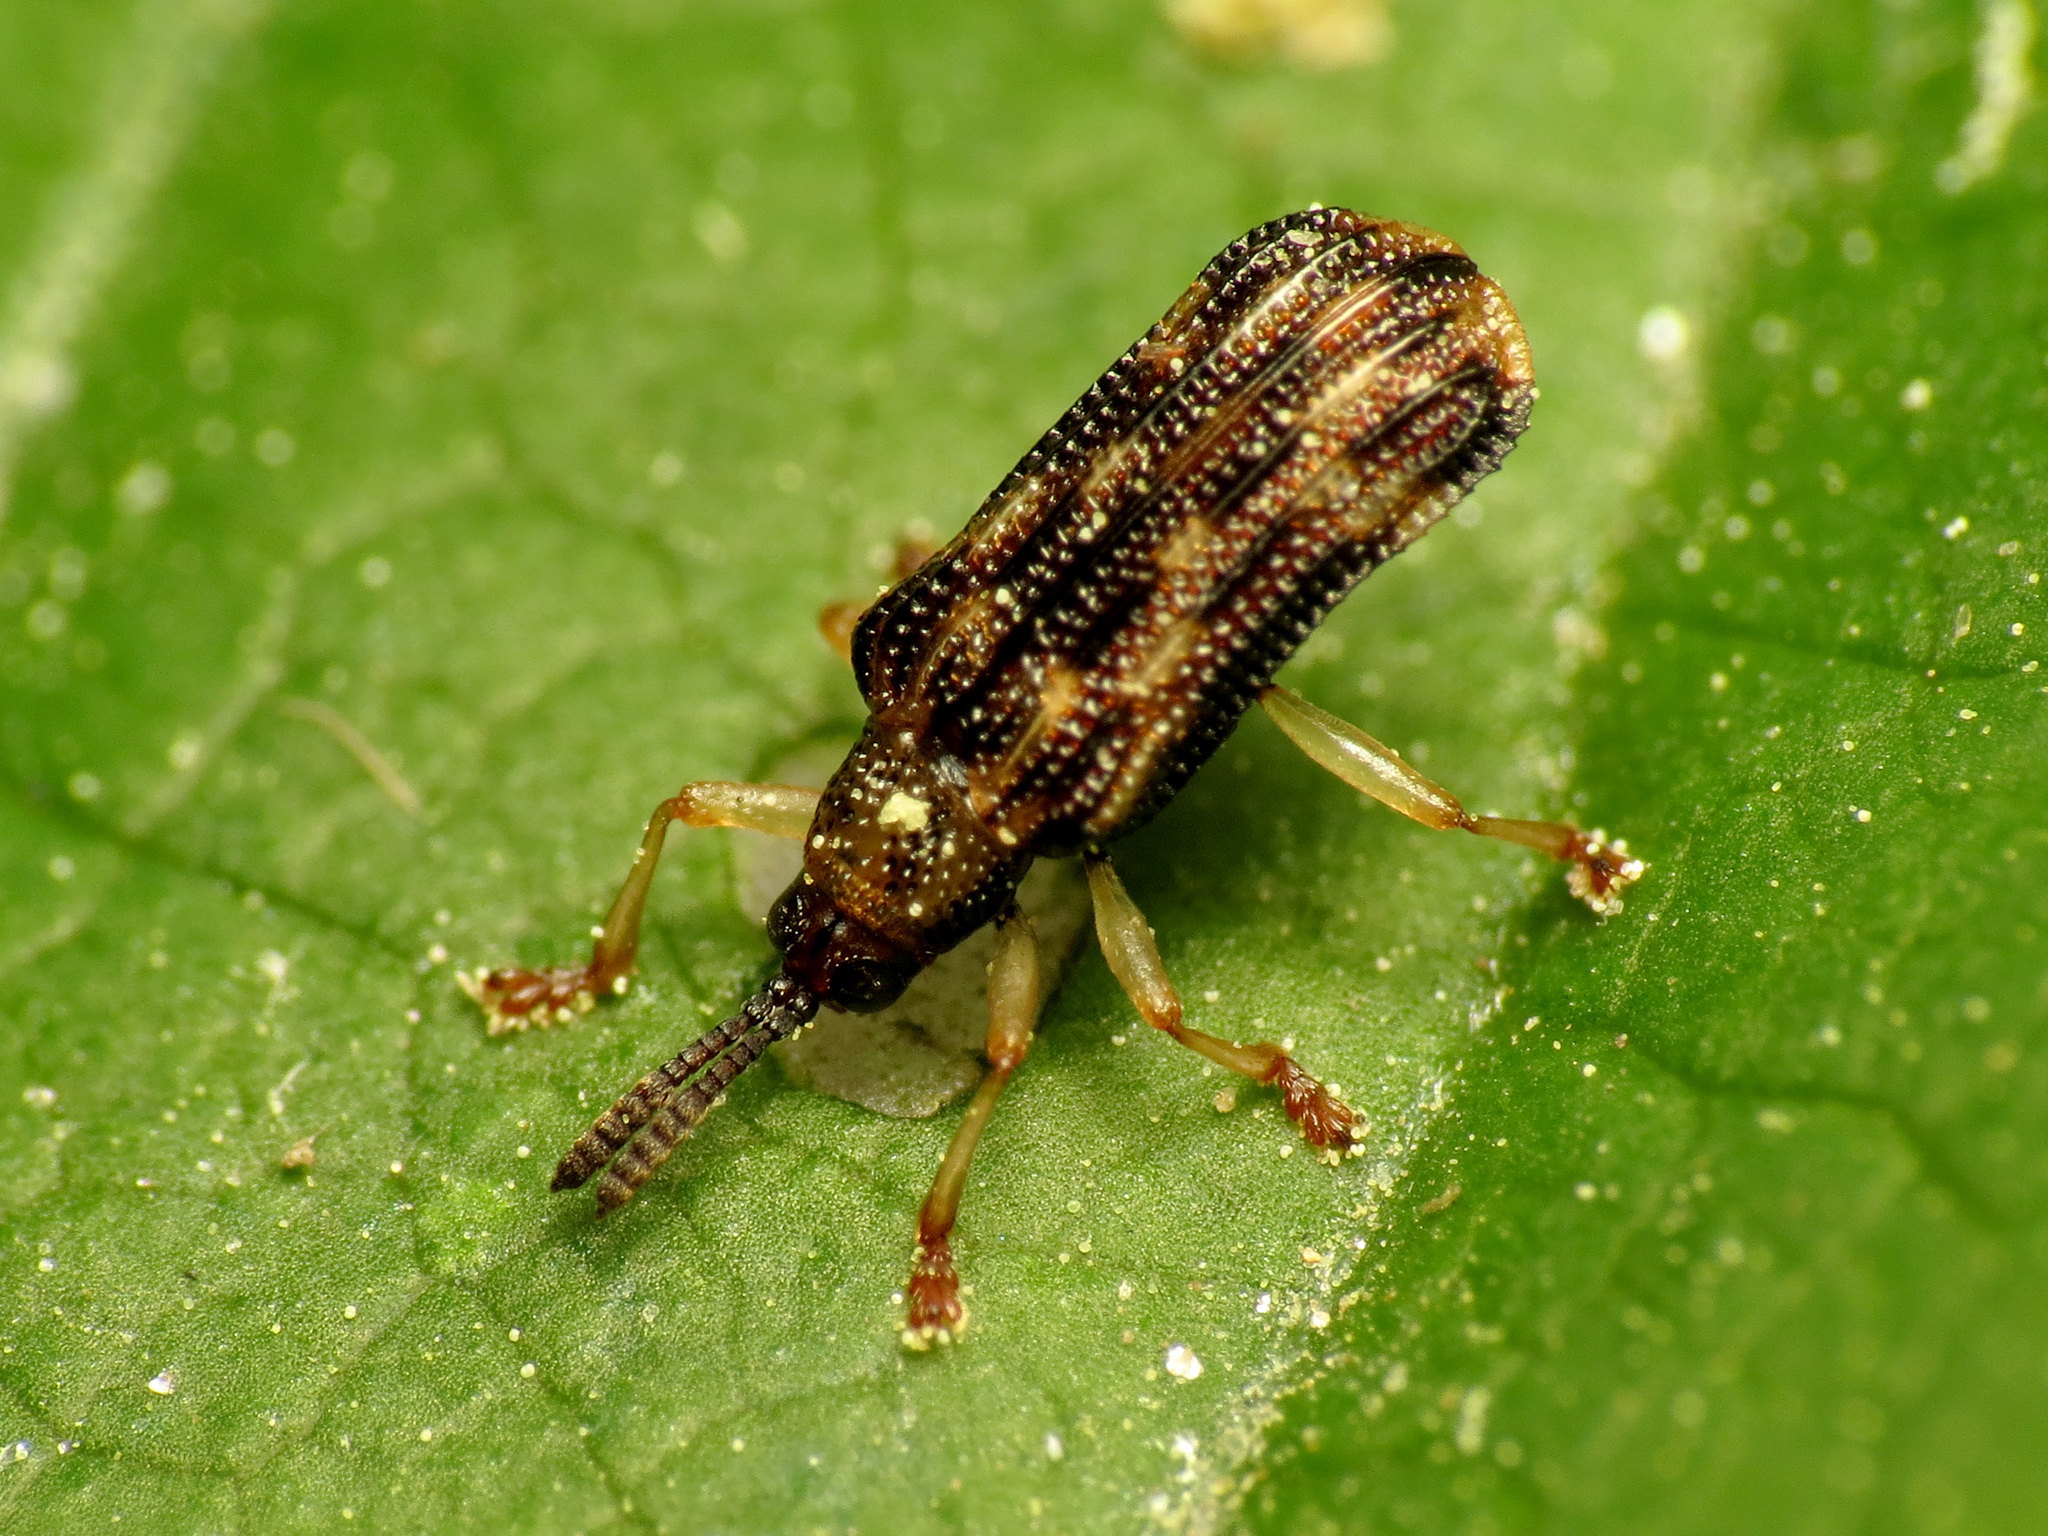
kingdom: Animalia
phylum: Arthropoda
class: Insecta
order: Coleoptera
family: Chrysomelidae
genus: Sumitrosis
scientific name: Sumitrosis inaequalis
